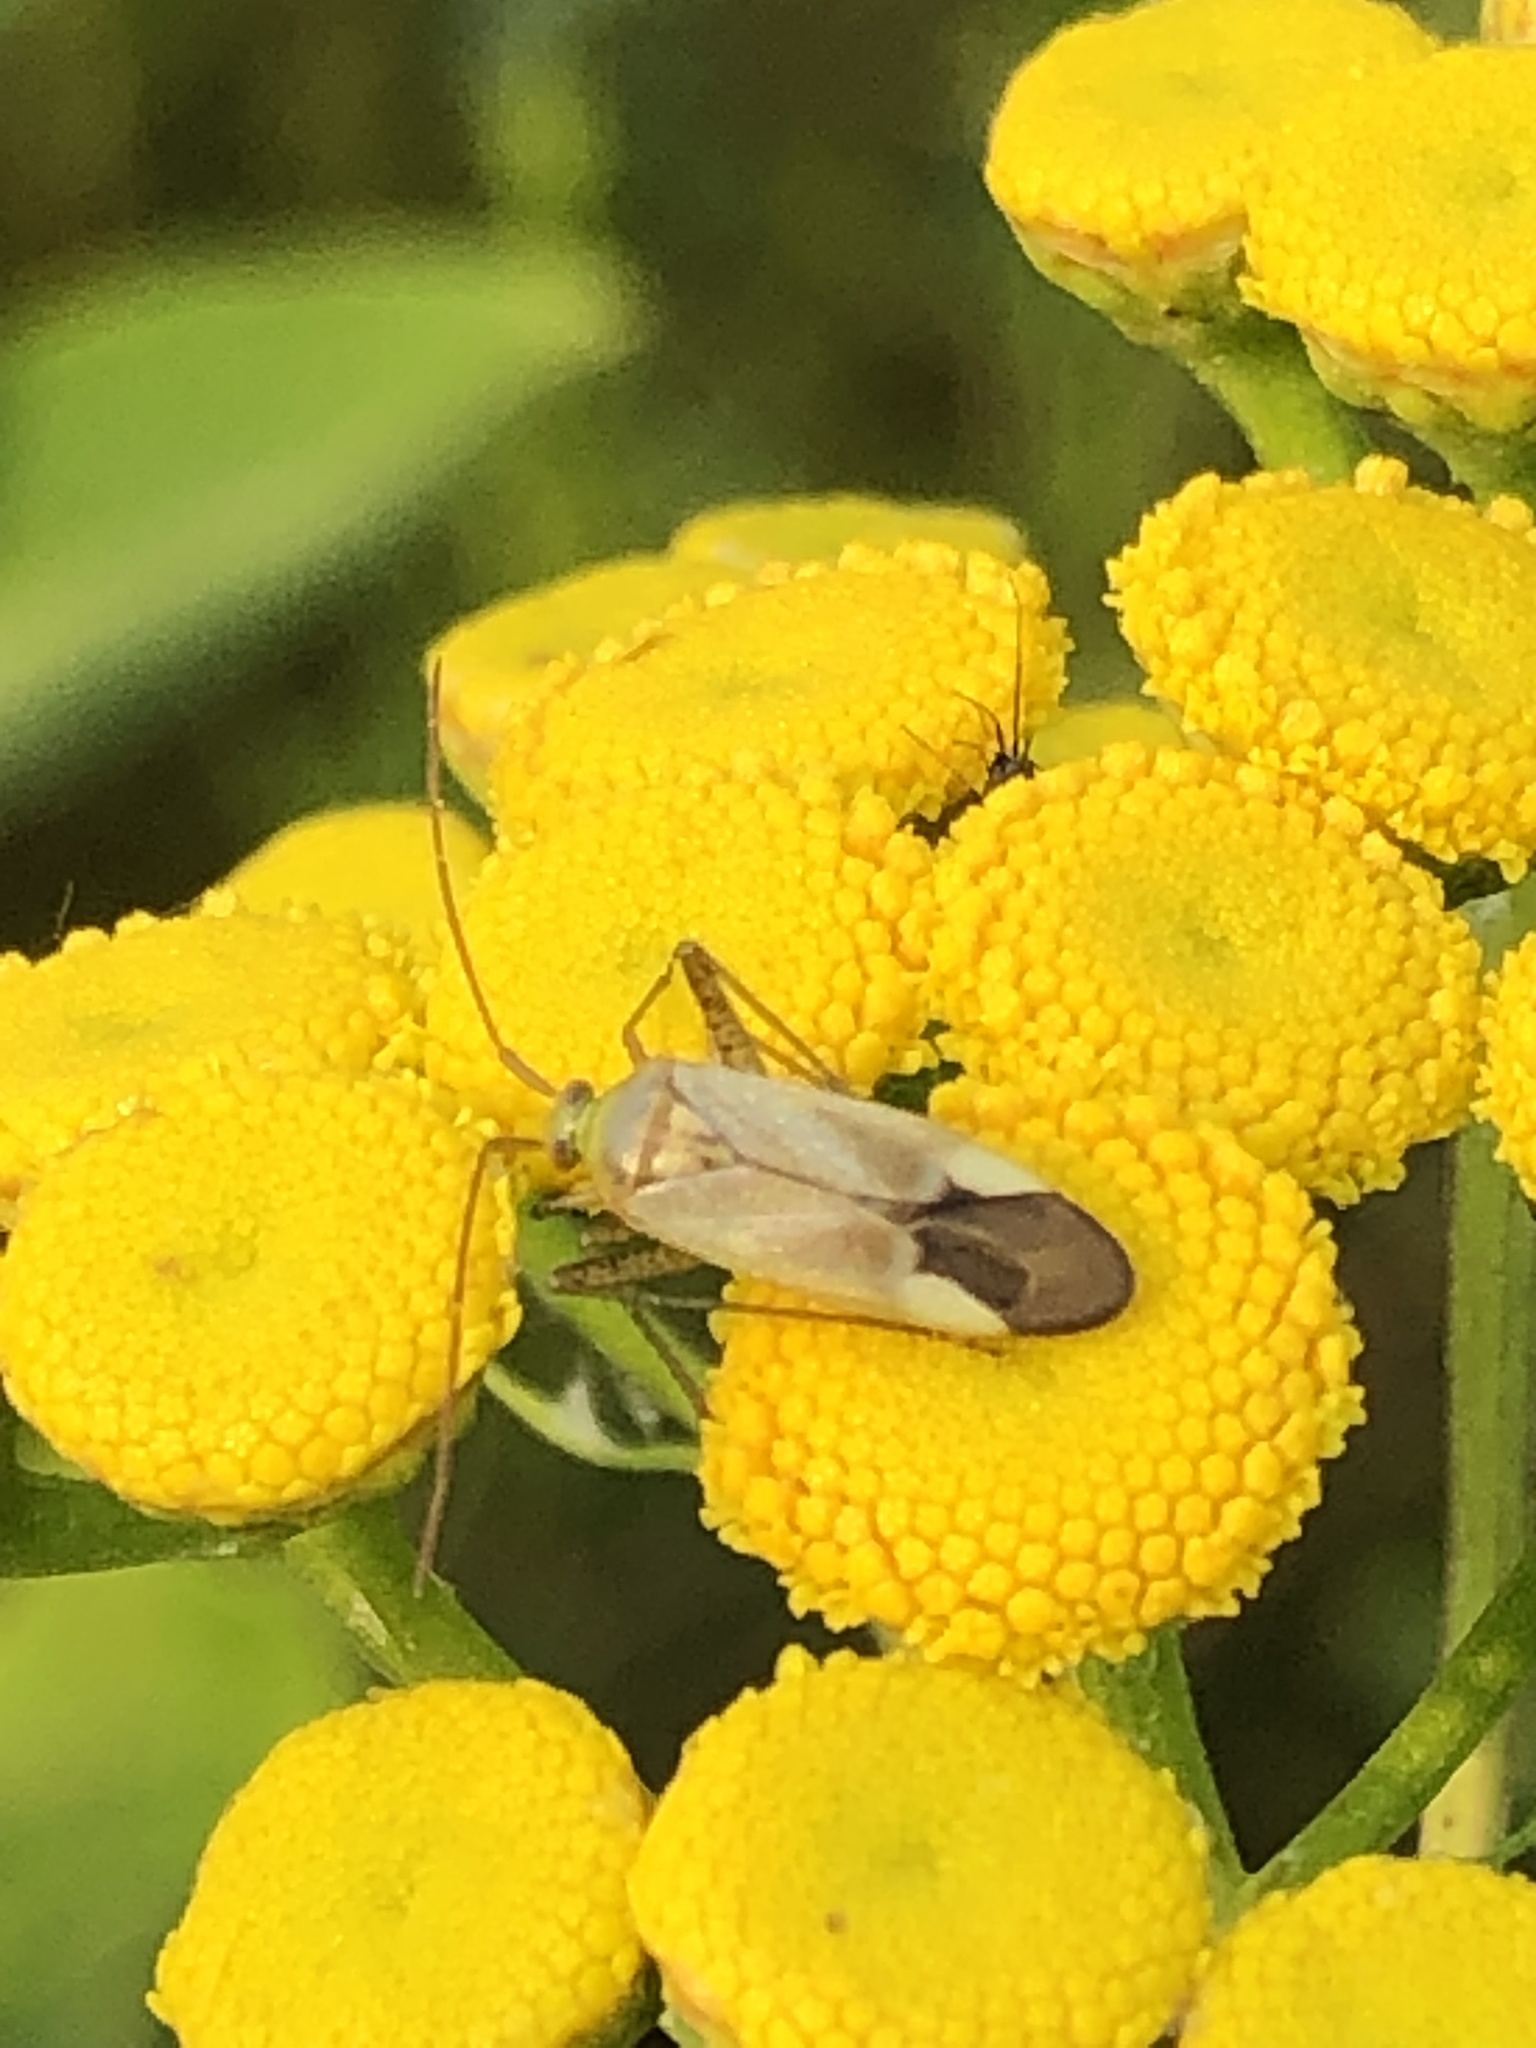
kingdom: Animalia
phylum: Arthropoda
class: Insecta
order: Hemiptera
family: Miridae
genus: Adelphocoris
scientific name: Adelphocoris lineolatus
